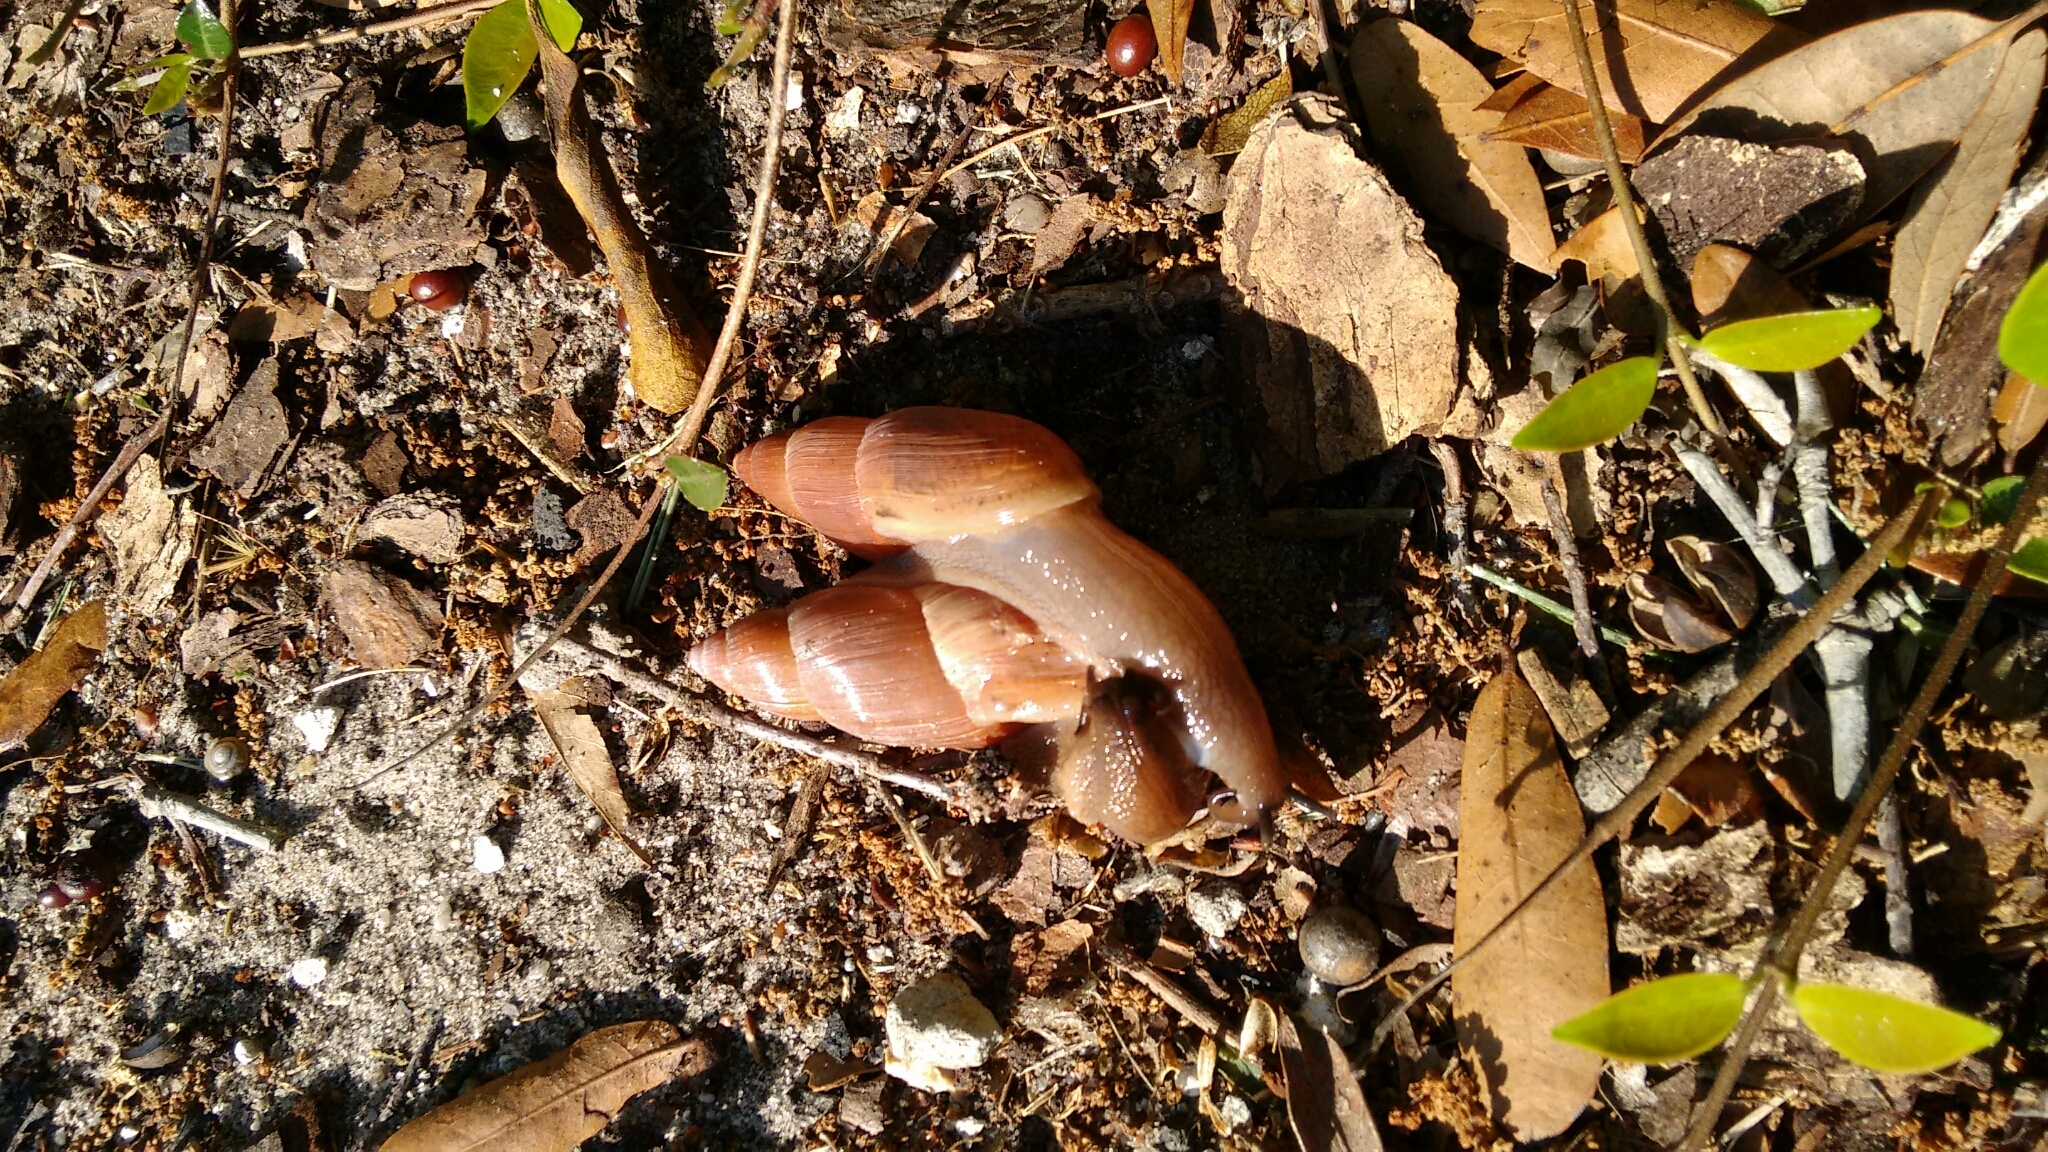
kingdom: Animalia
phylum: Mollusca
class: Gastropoda
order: Stylommatophora
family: Spiraxidae
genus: Euglandina
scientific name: Euglandina rosea
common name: Rosy wolfsnail
